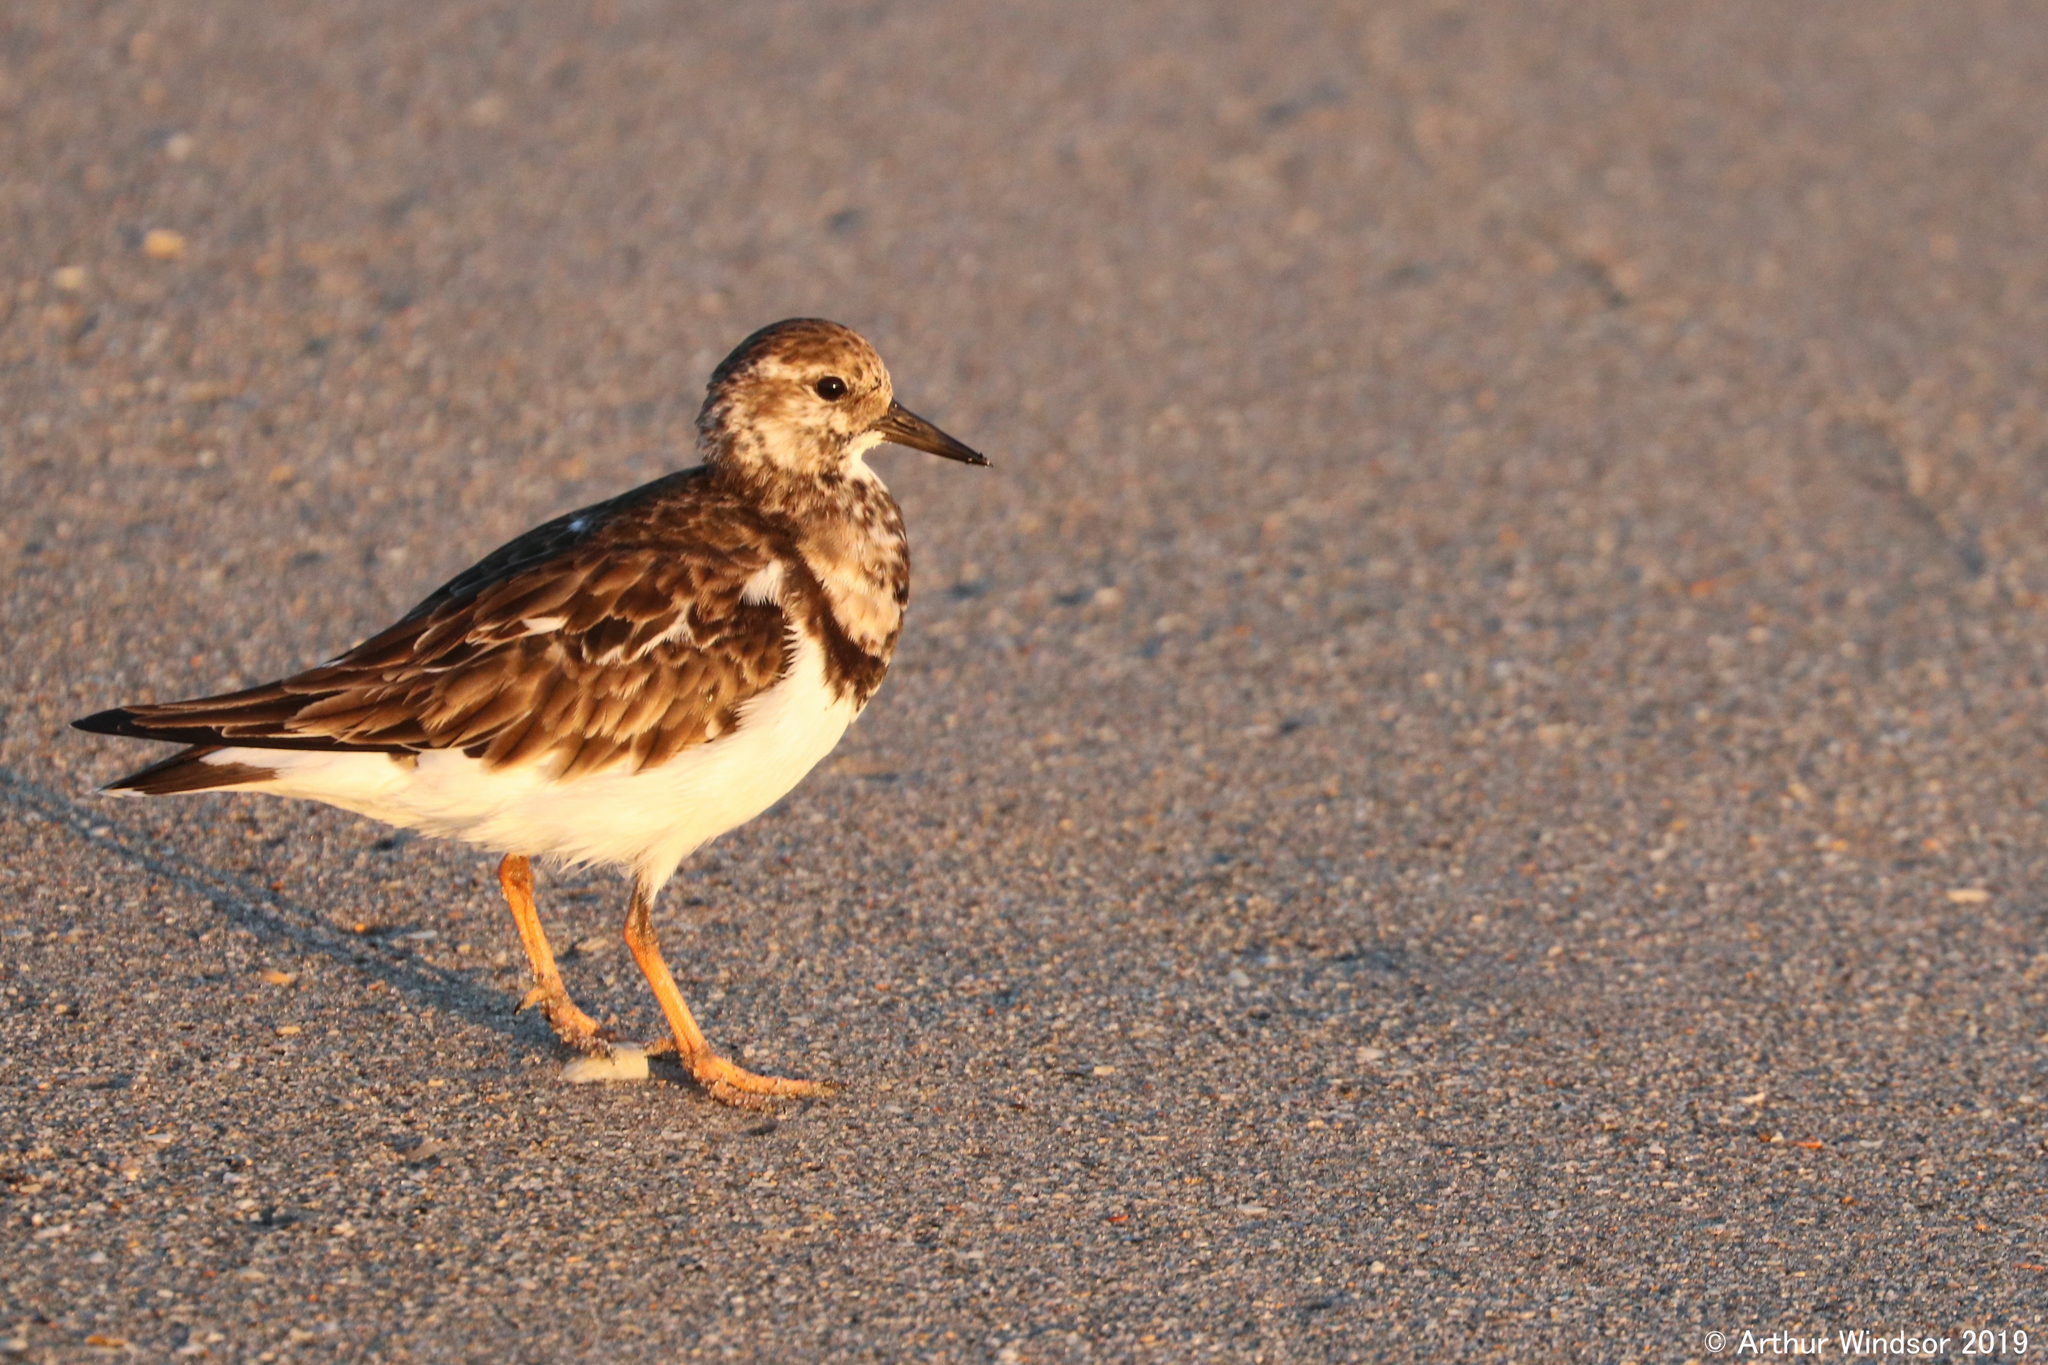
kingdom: Animalia
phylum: Chordata
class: Aves
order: Charadriiformes
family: Scolopacidae
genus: Arenaria
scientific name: Arenaria interpres
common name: Ruddy turnstone
